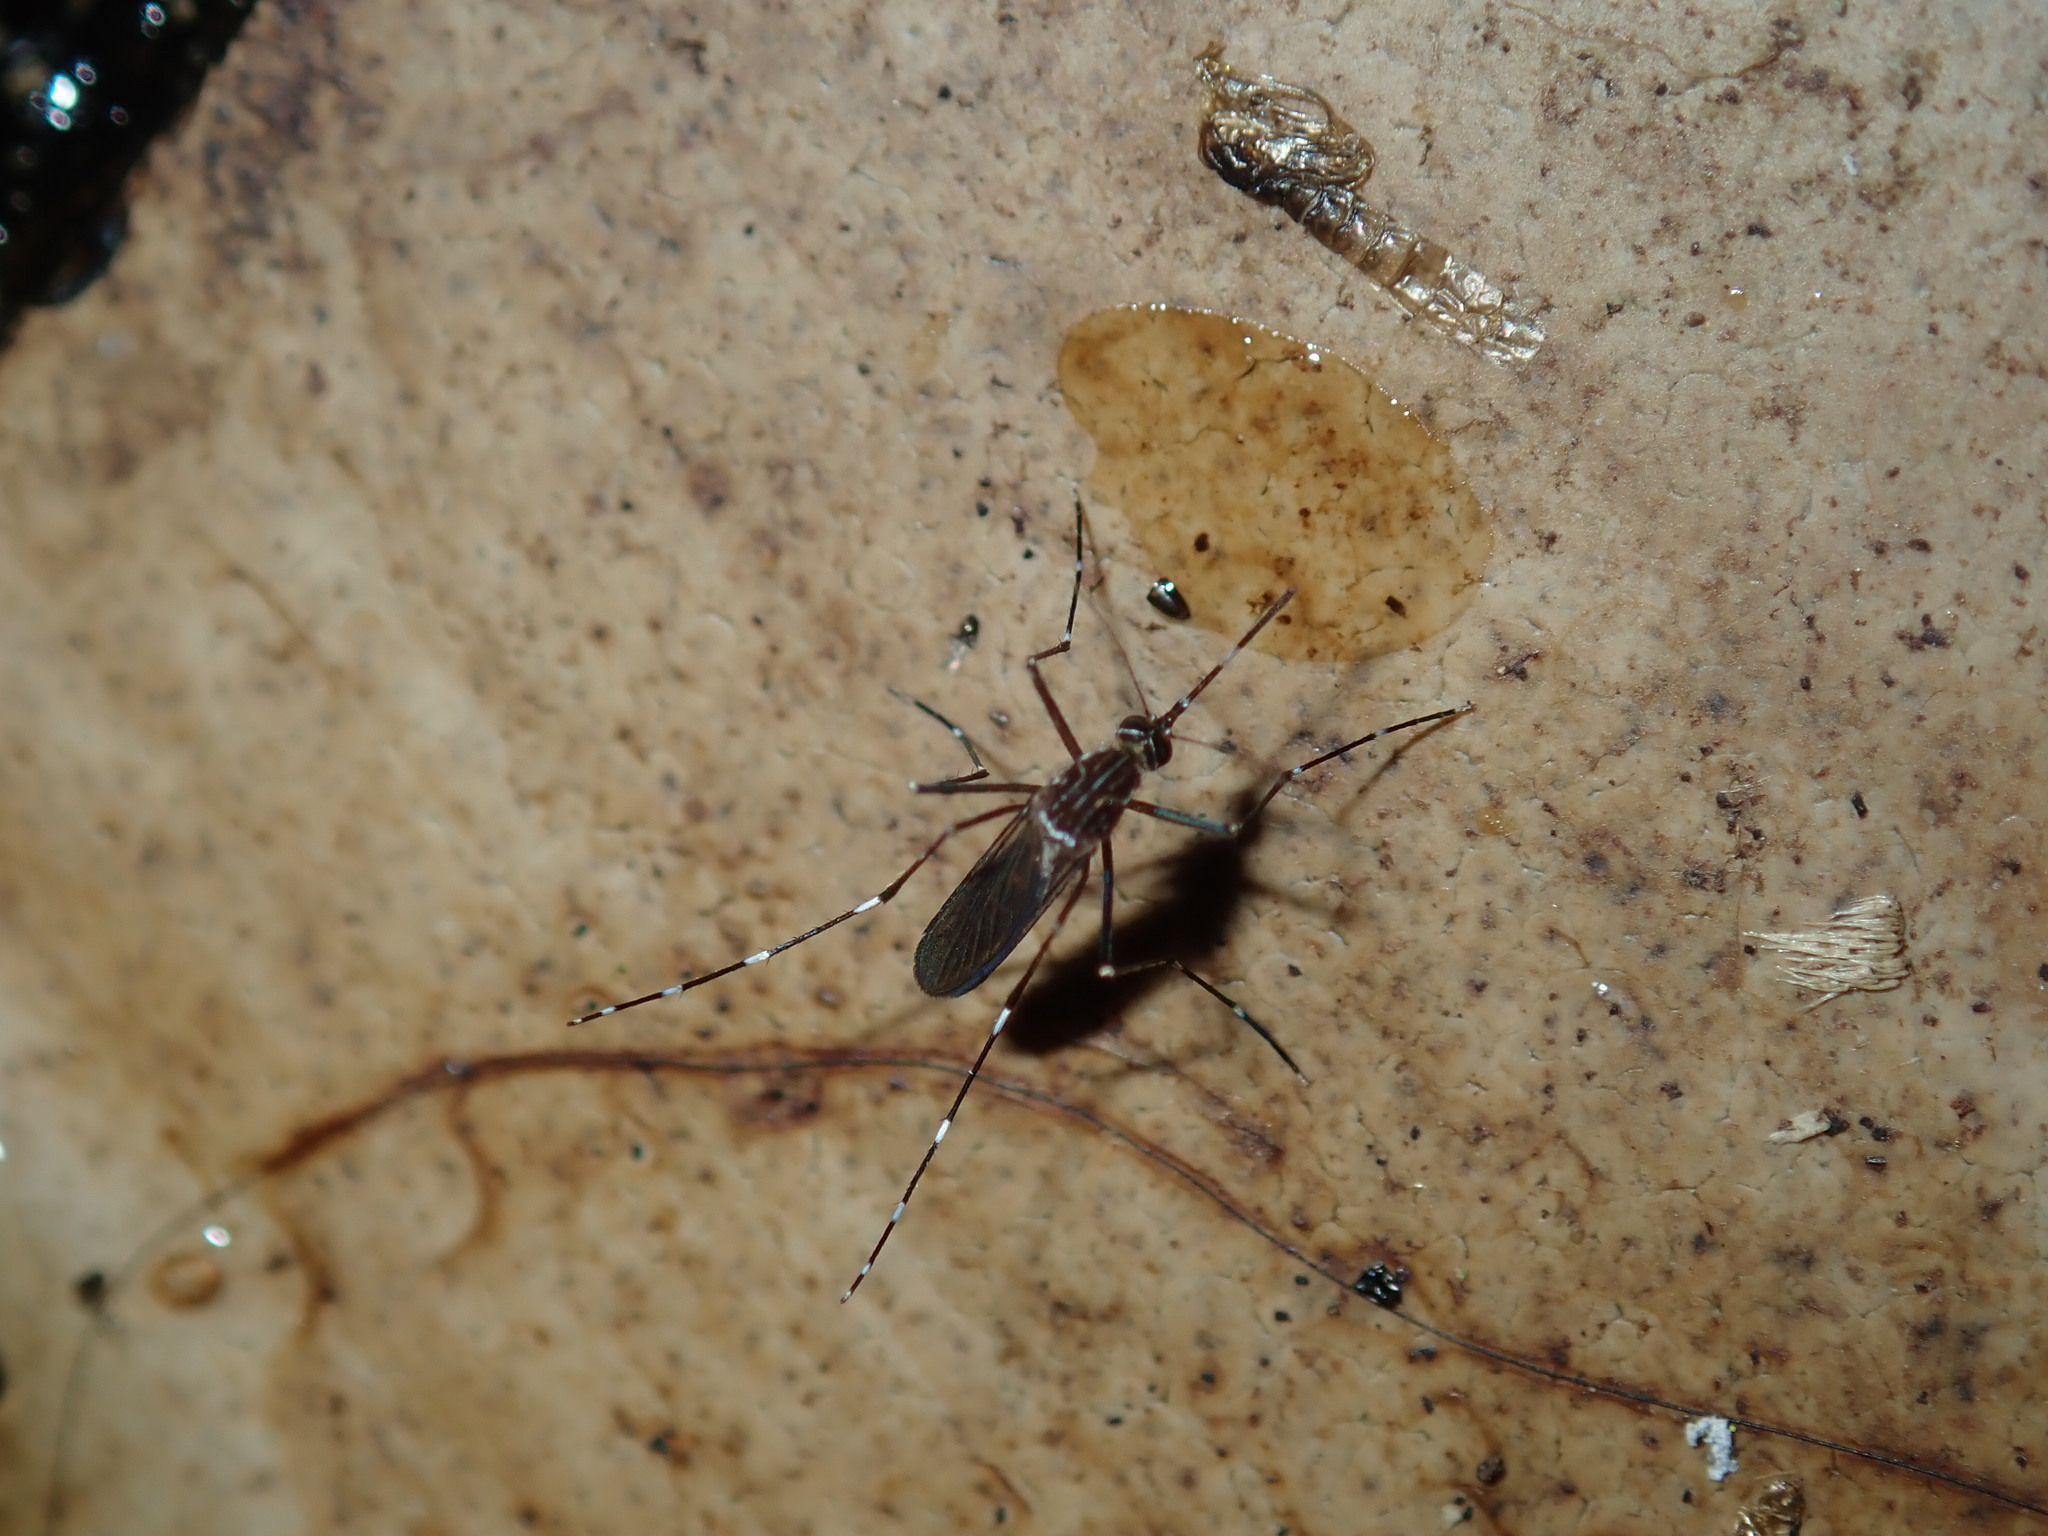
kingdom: Animalia
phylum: Arthropoda
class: Insecta
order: Diptera
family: Culicidae
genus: Aedes
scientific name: Aedes notoscriptus
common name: Australian backyard mosquito
